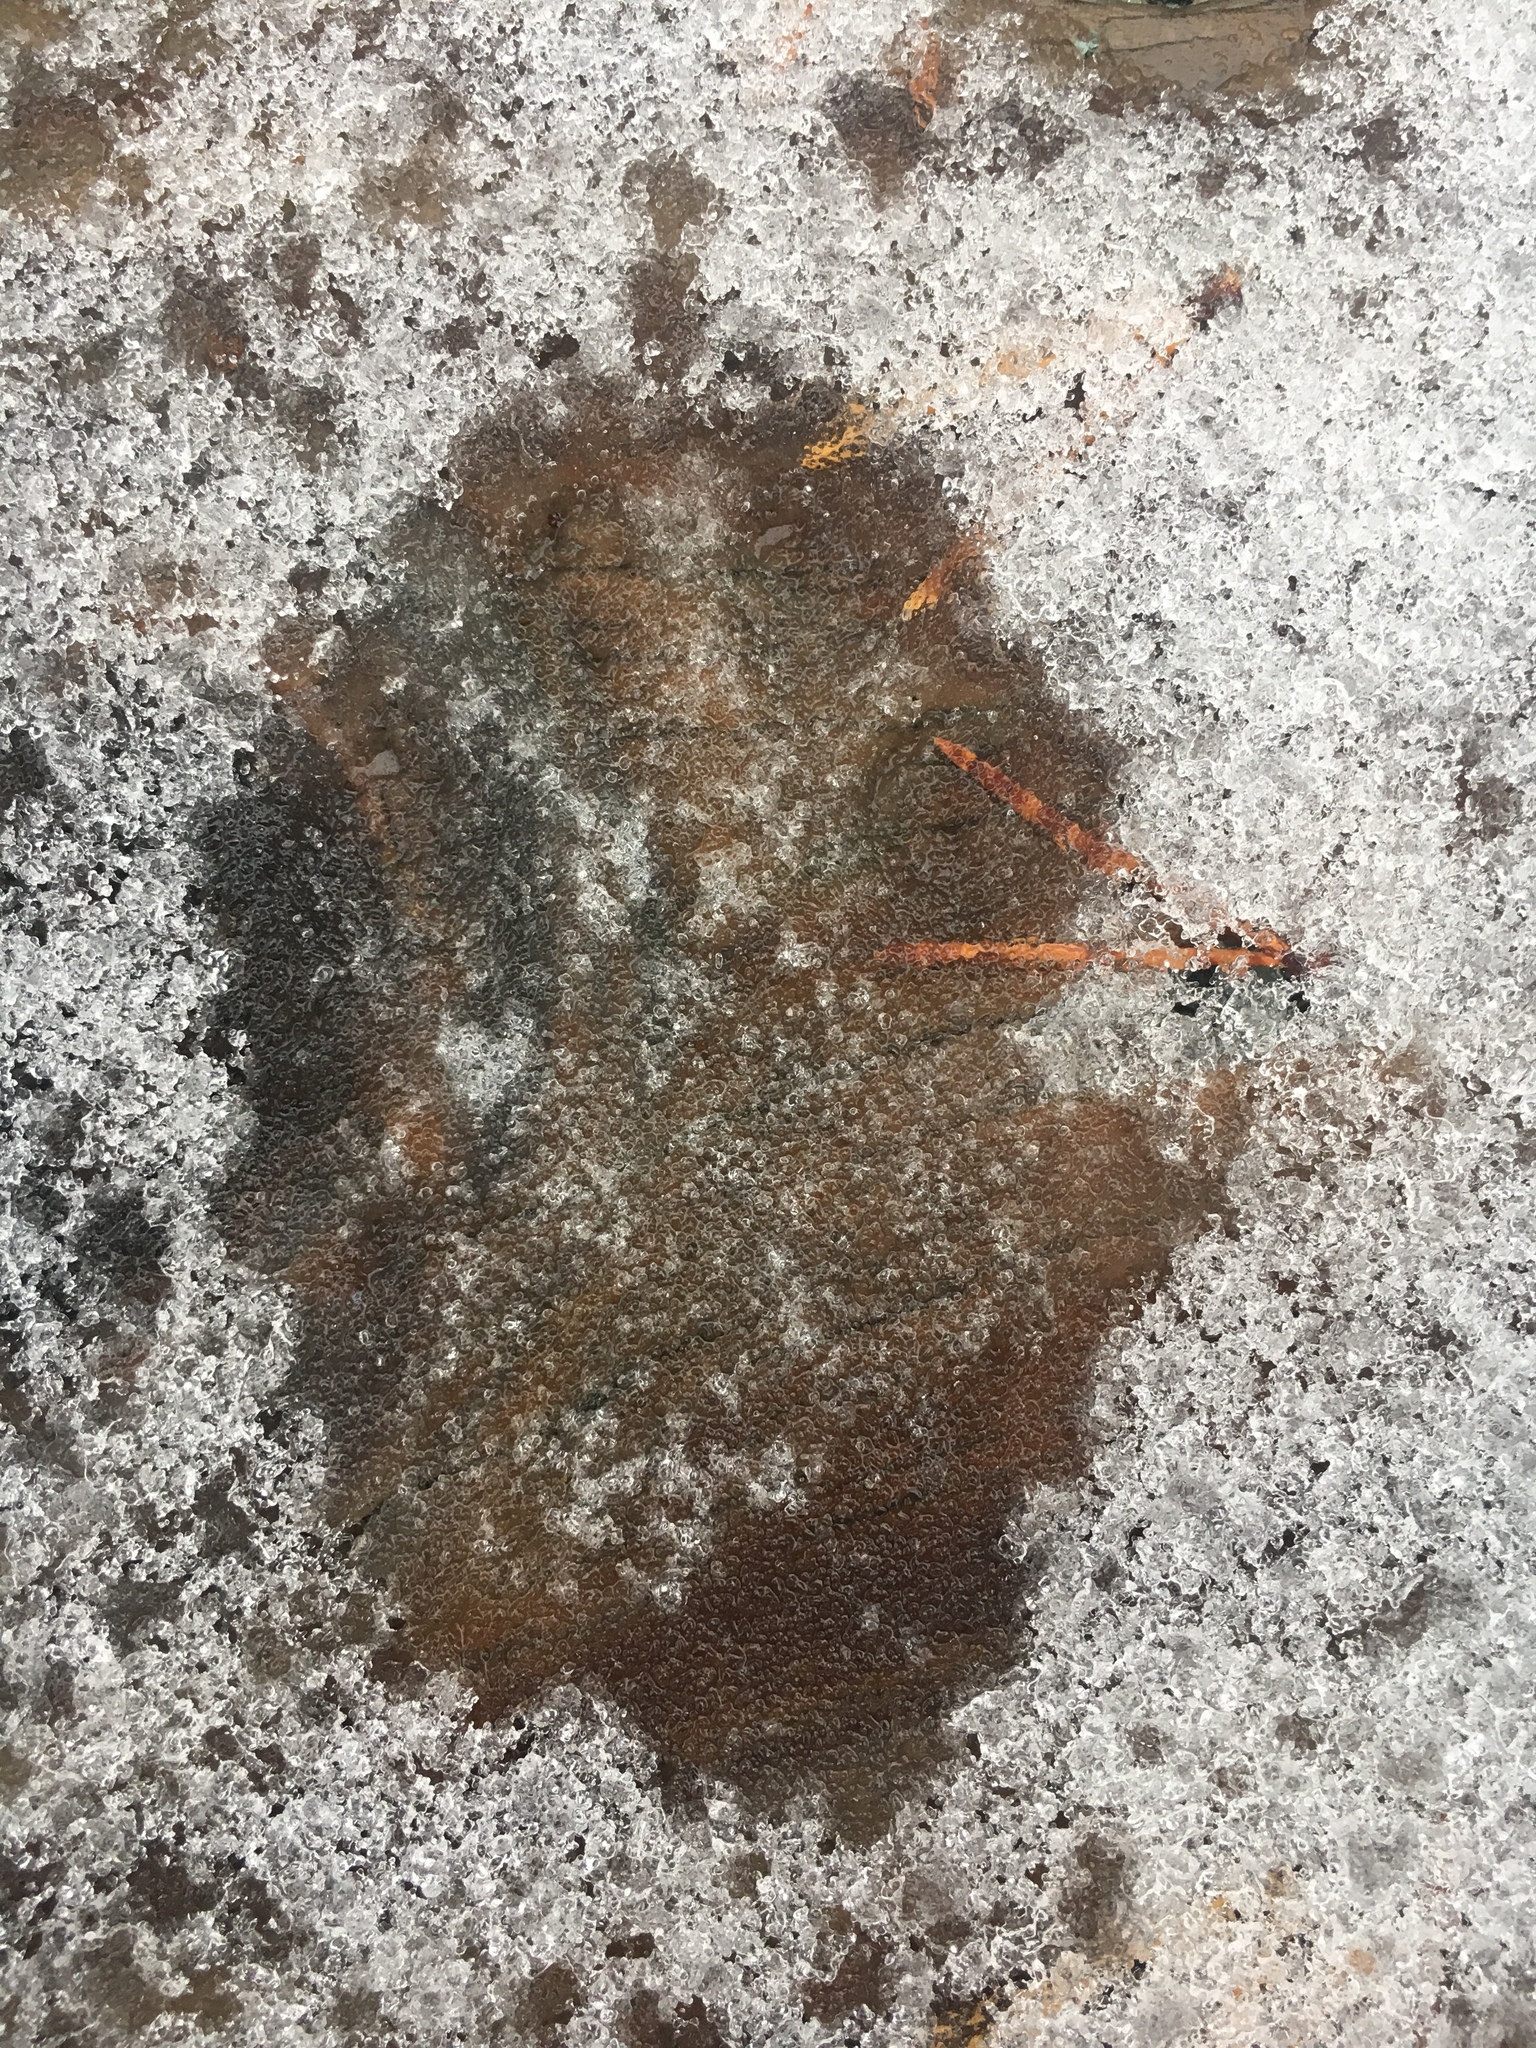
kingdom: Animalia
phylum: Chordata
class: Mammalia
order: Carnivora
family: Canidae
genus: Canis
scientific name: Canis lupus
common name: Gray wolf
